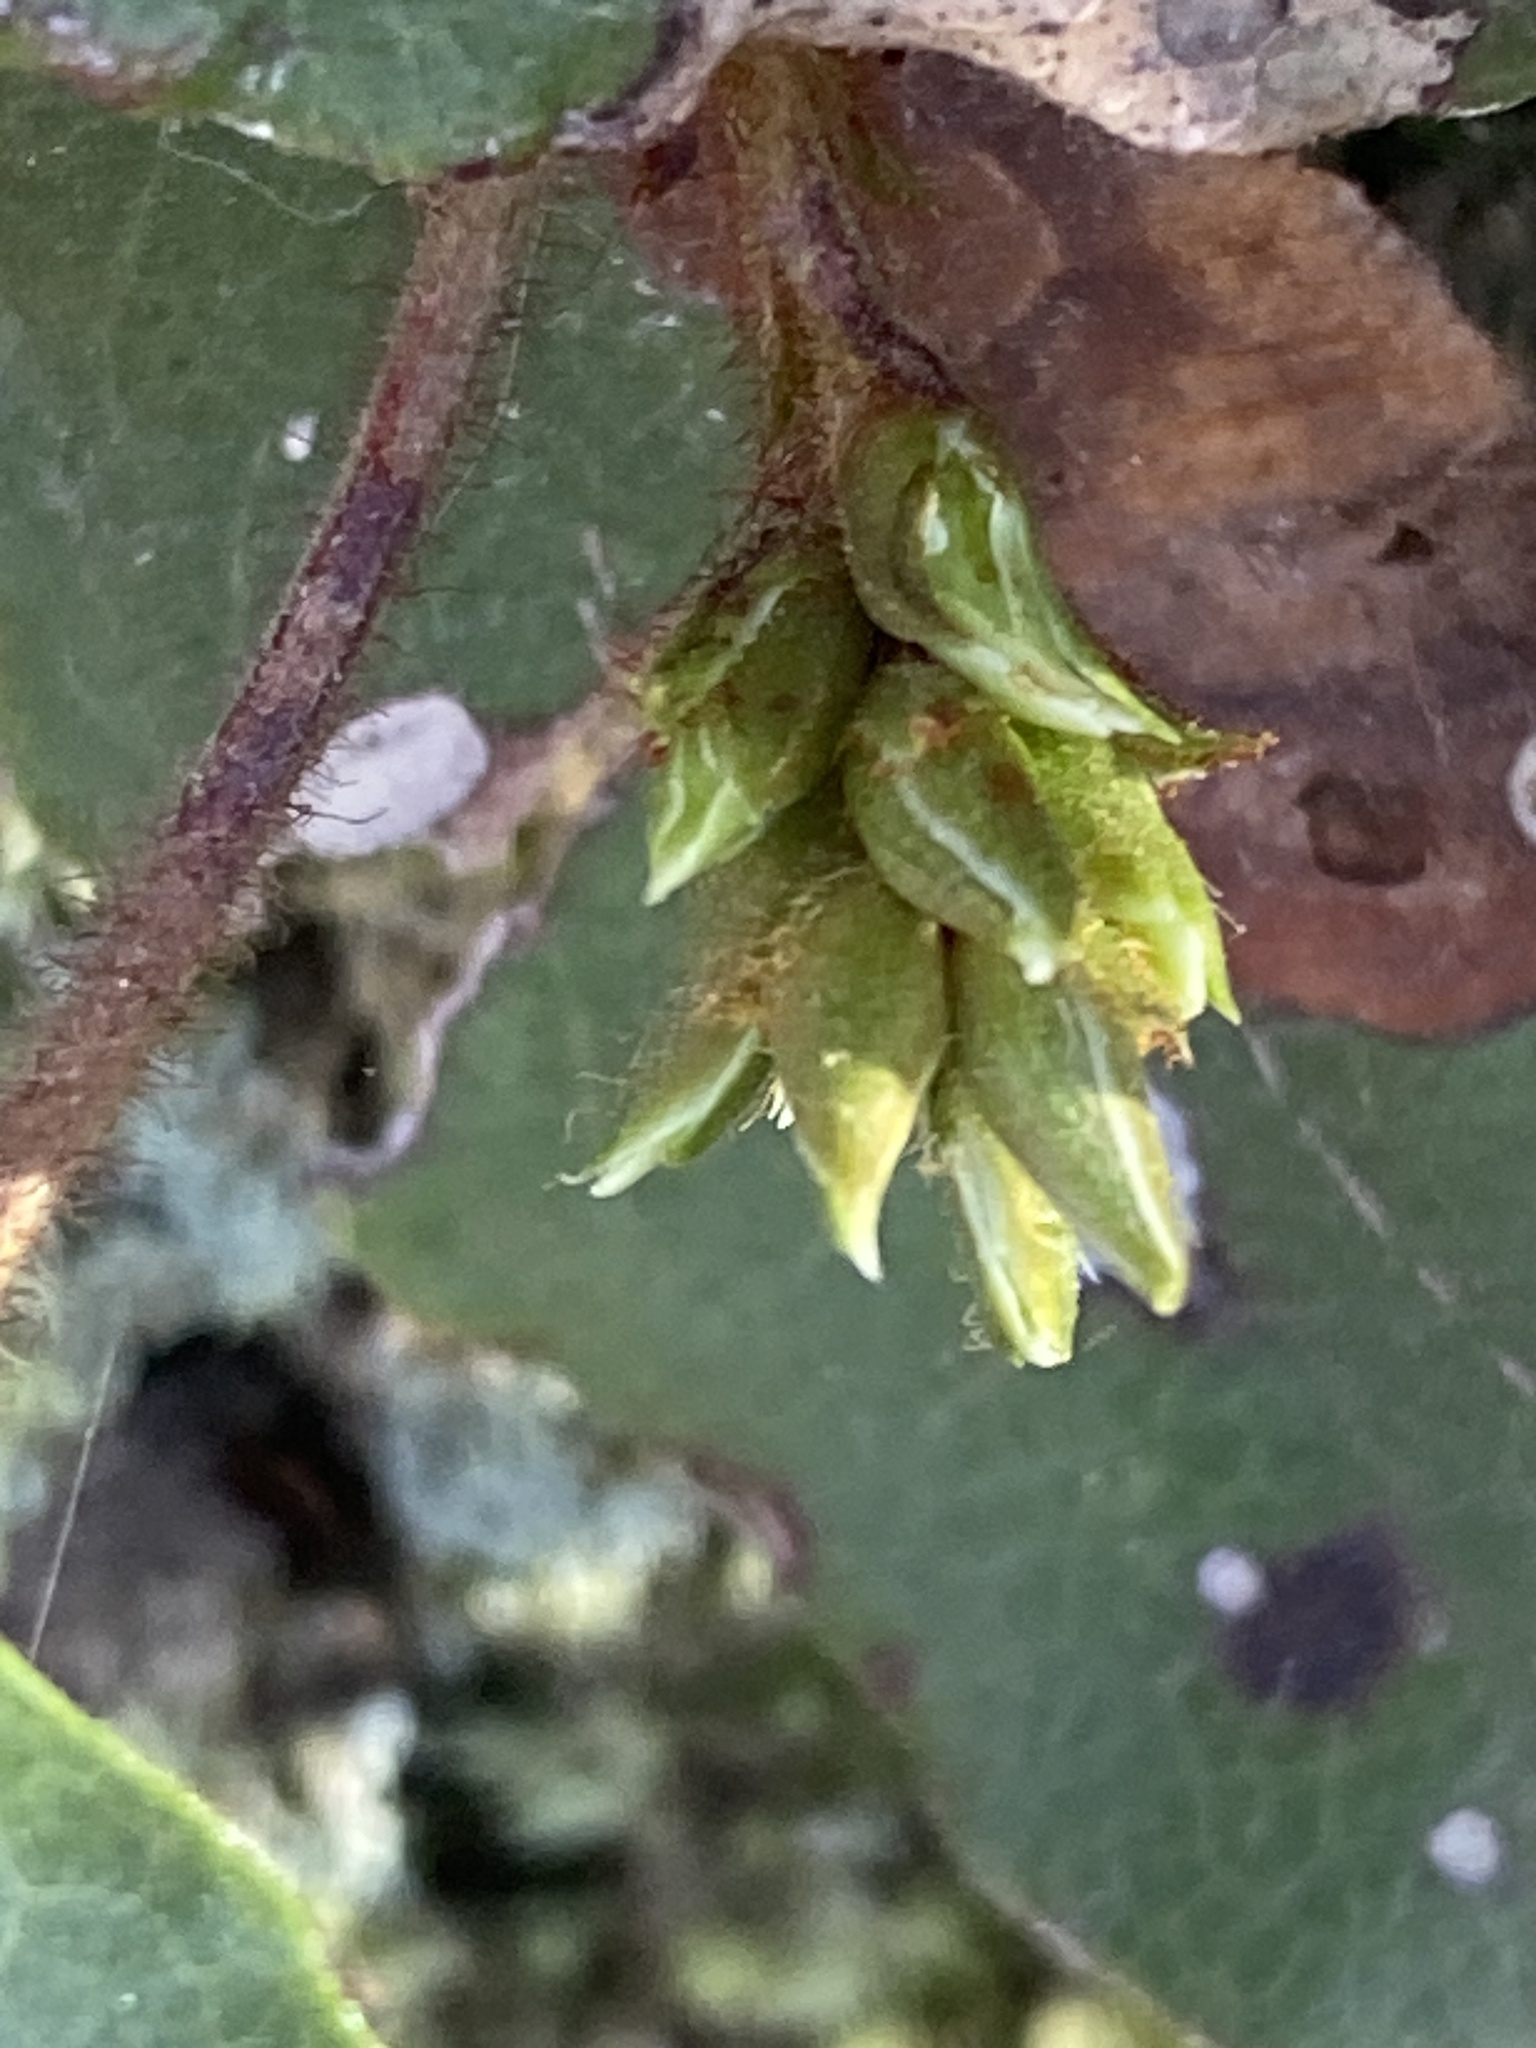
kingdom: Plantae
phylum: Tracheophyta
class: Magnoliopsida
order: Ericales
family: Ericaceae
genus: Epigaea
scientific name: Epigaea repens
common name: Gravelroot
